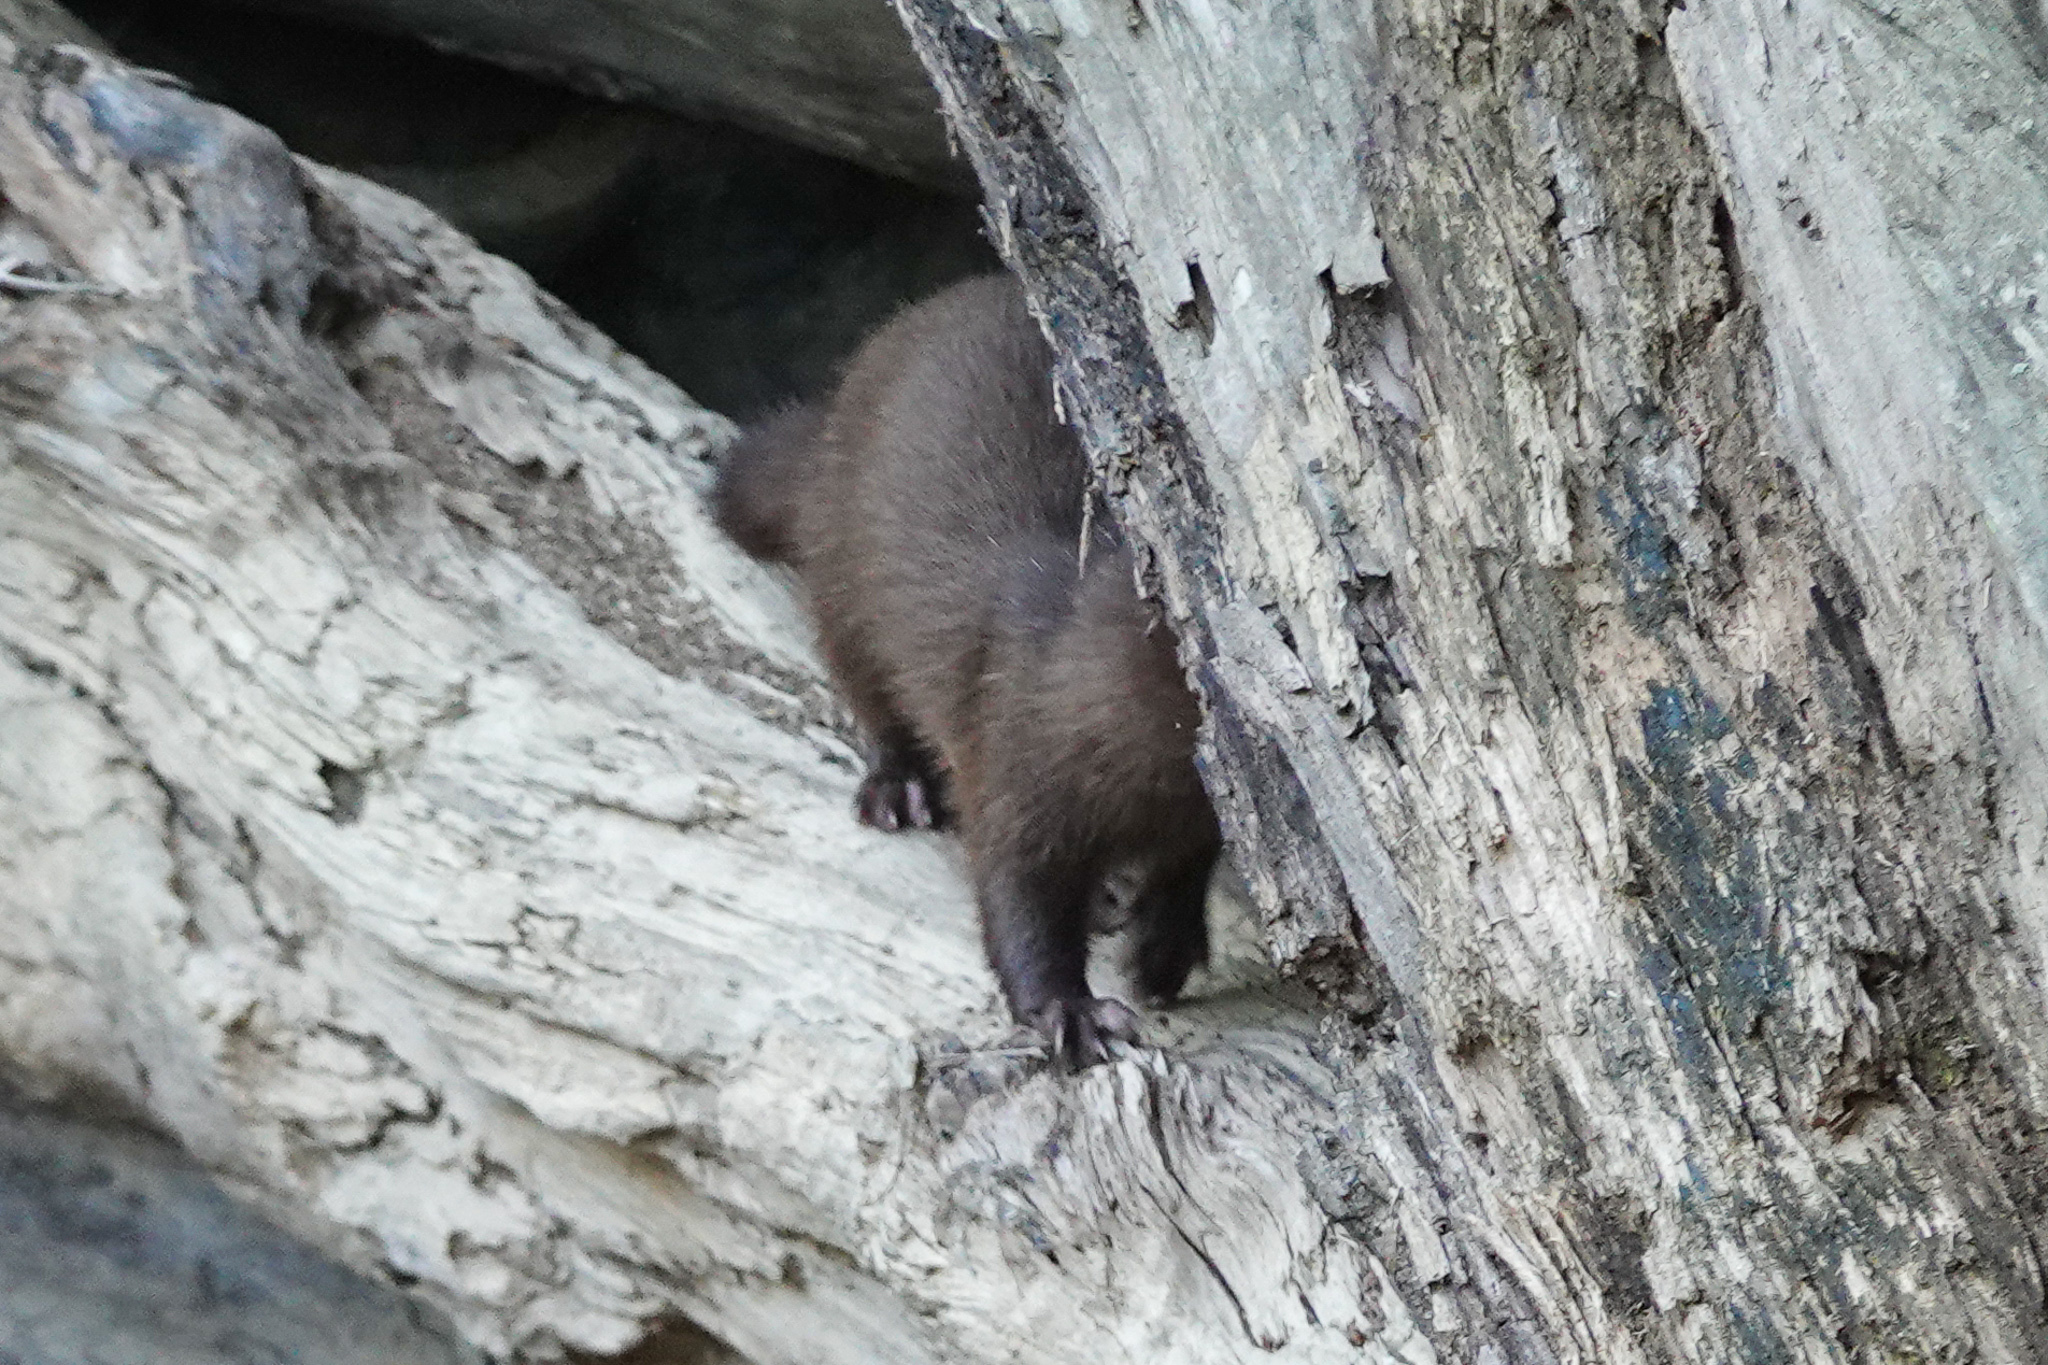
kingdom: Animalia
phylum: Chordata
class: Mammalia
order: Carnivora
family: Mustelidae
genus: Mustela
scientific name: Mustela
